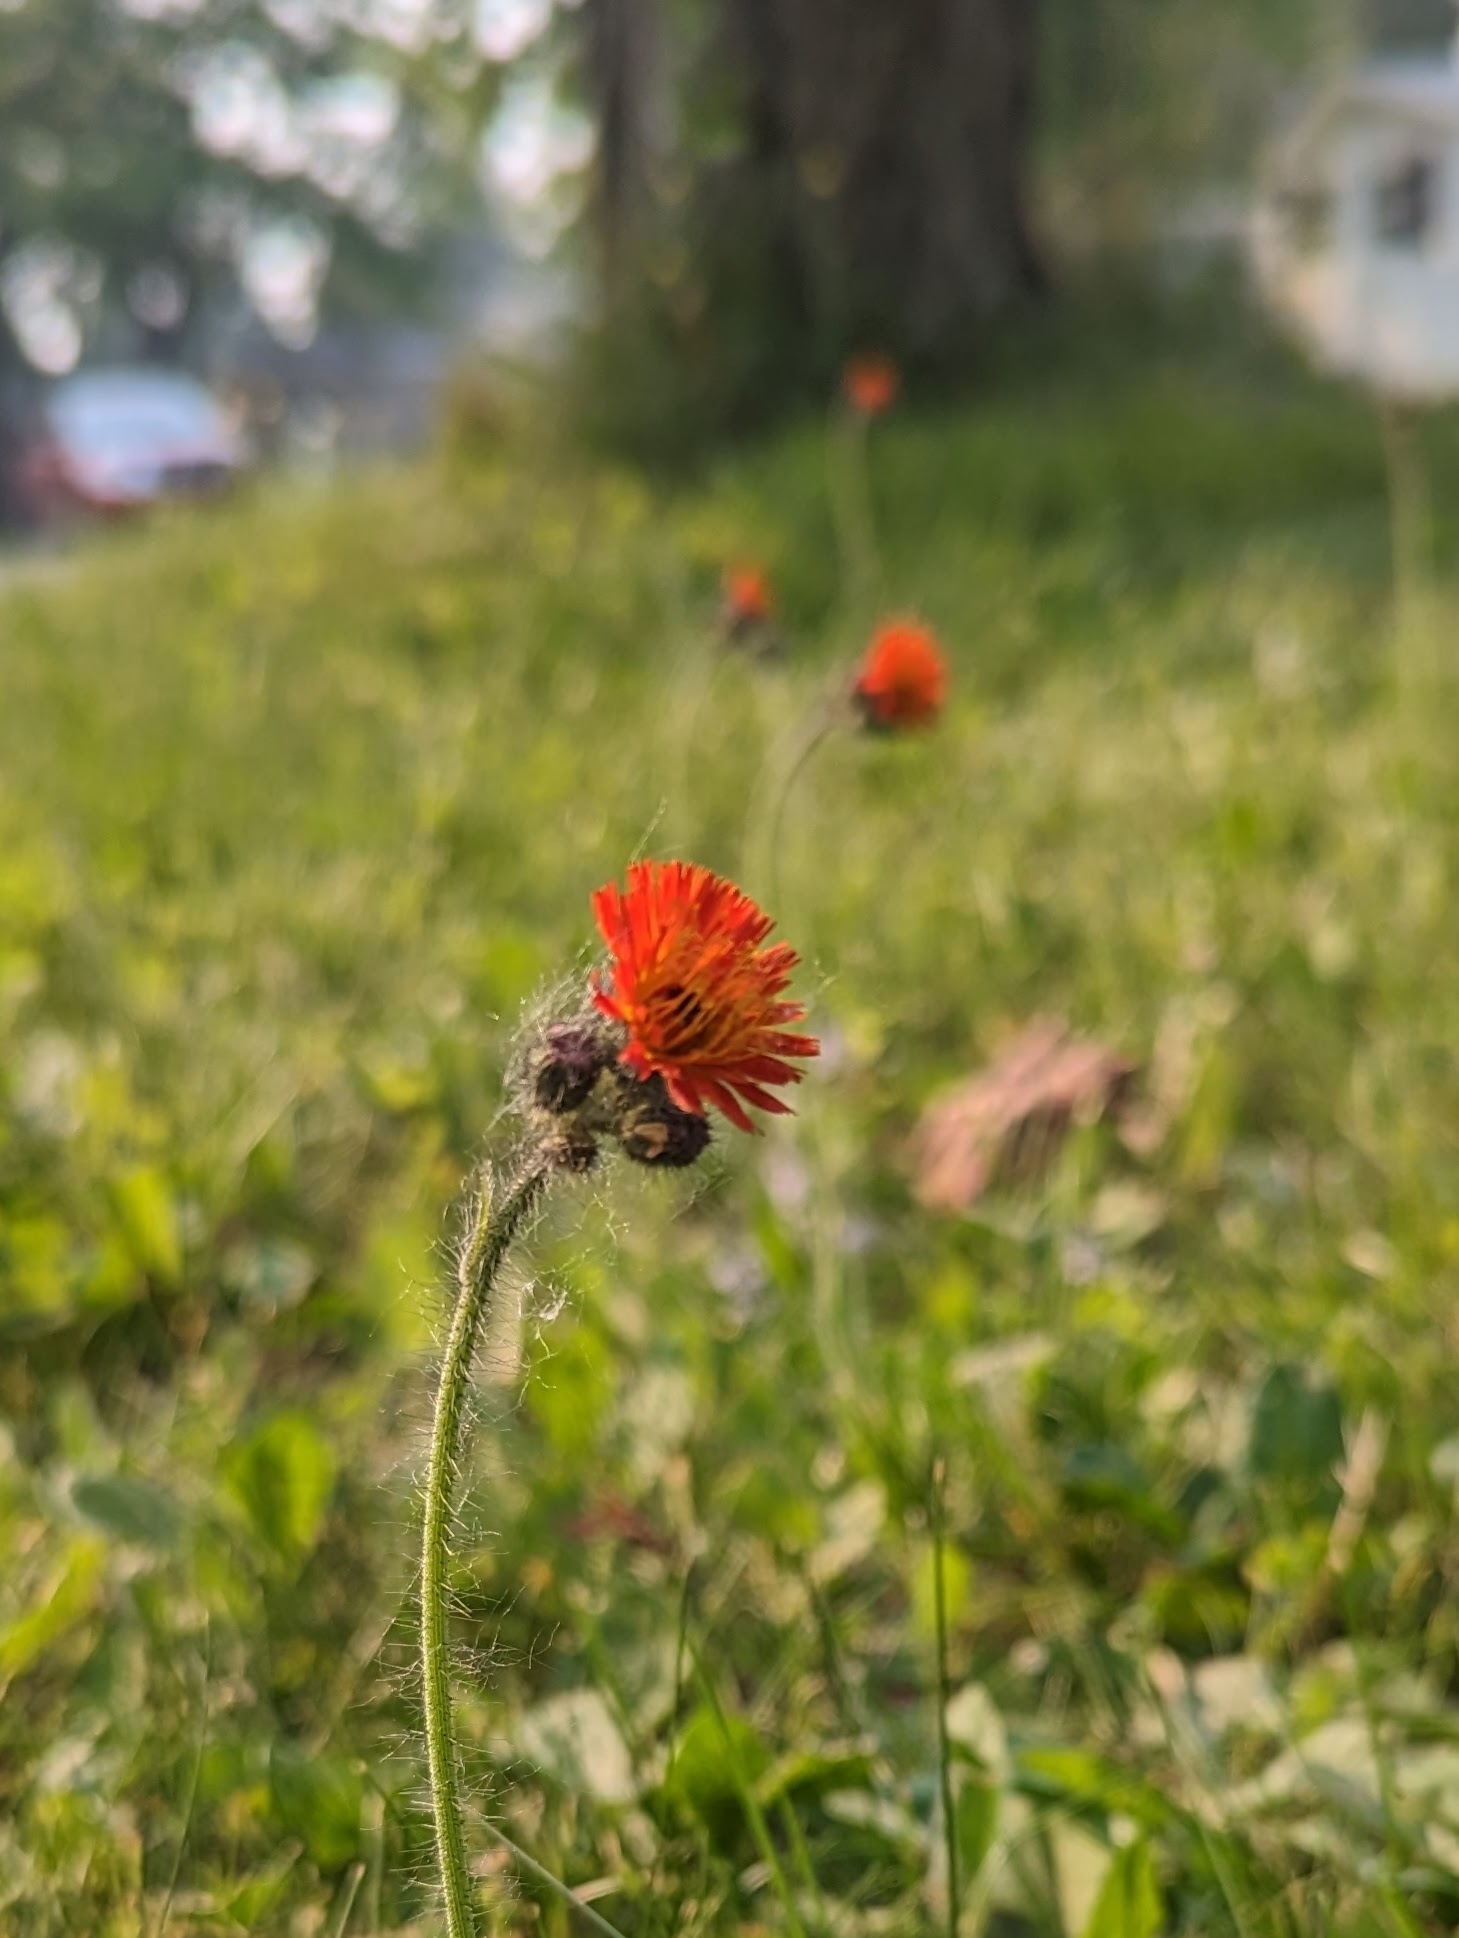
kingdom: Plantae
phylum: Tracheophyta
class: Magnoliopsida
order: Asterales
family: Asteraceae
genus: Pilosella
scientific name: Pilosella aurantiaca
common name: Fox-and-cubs
